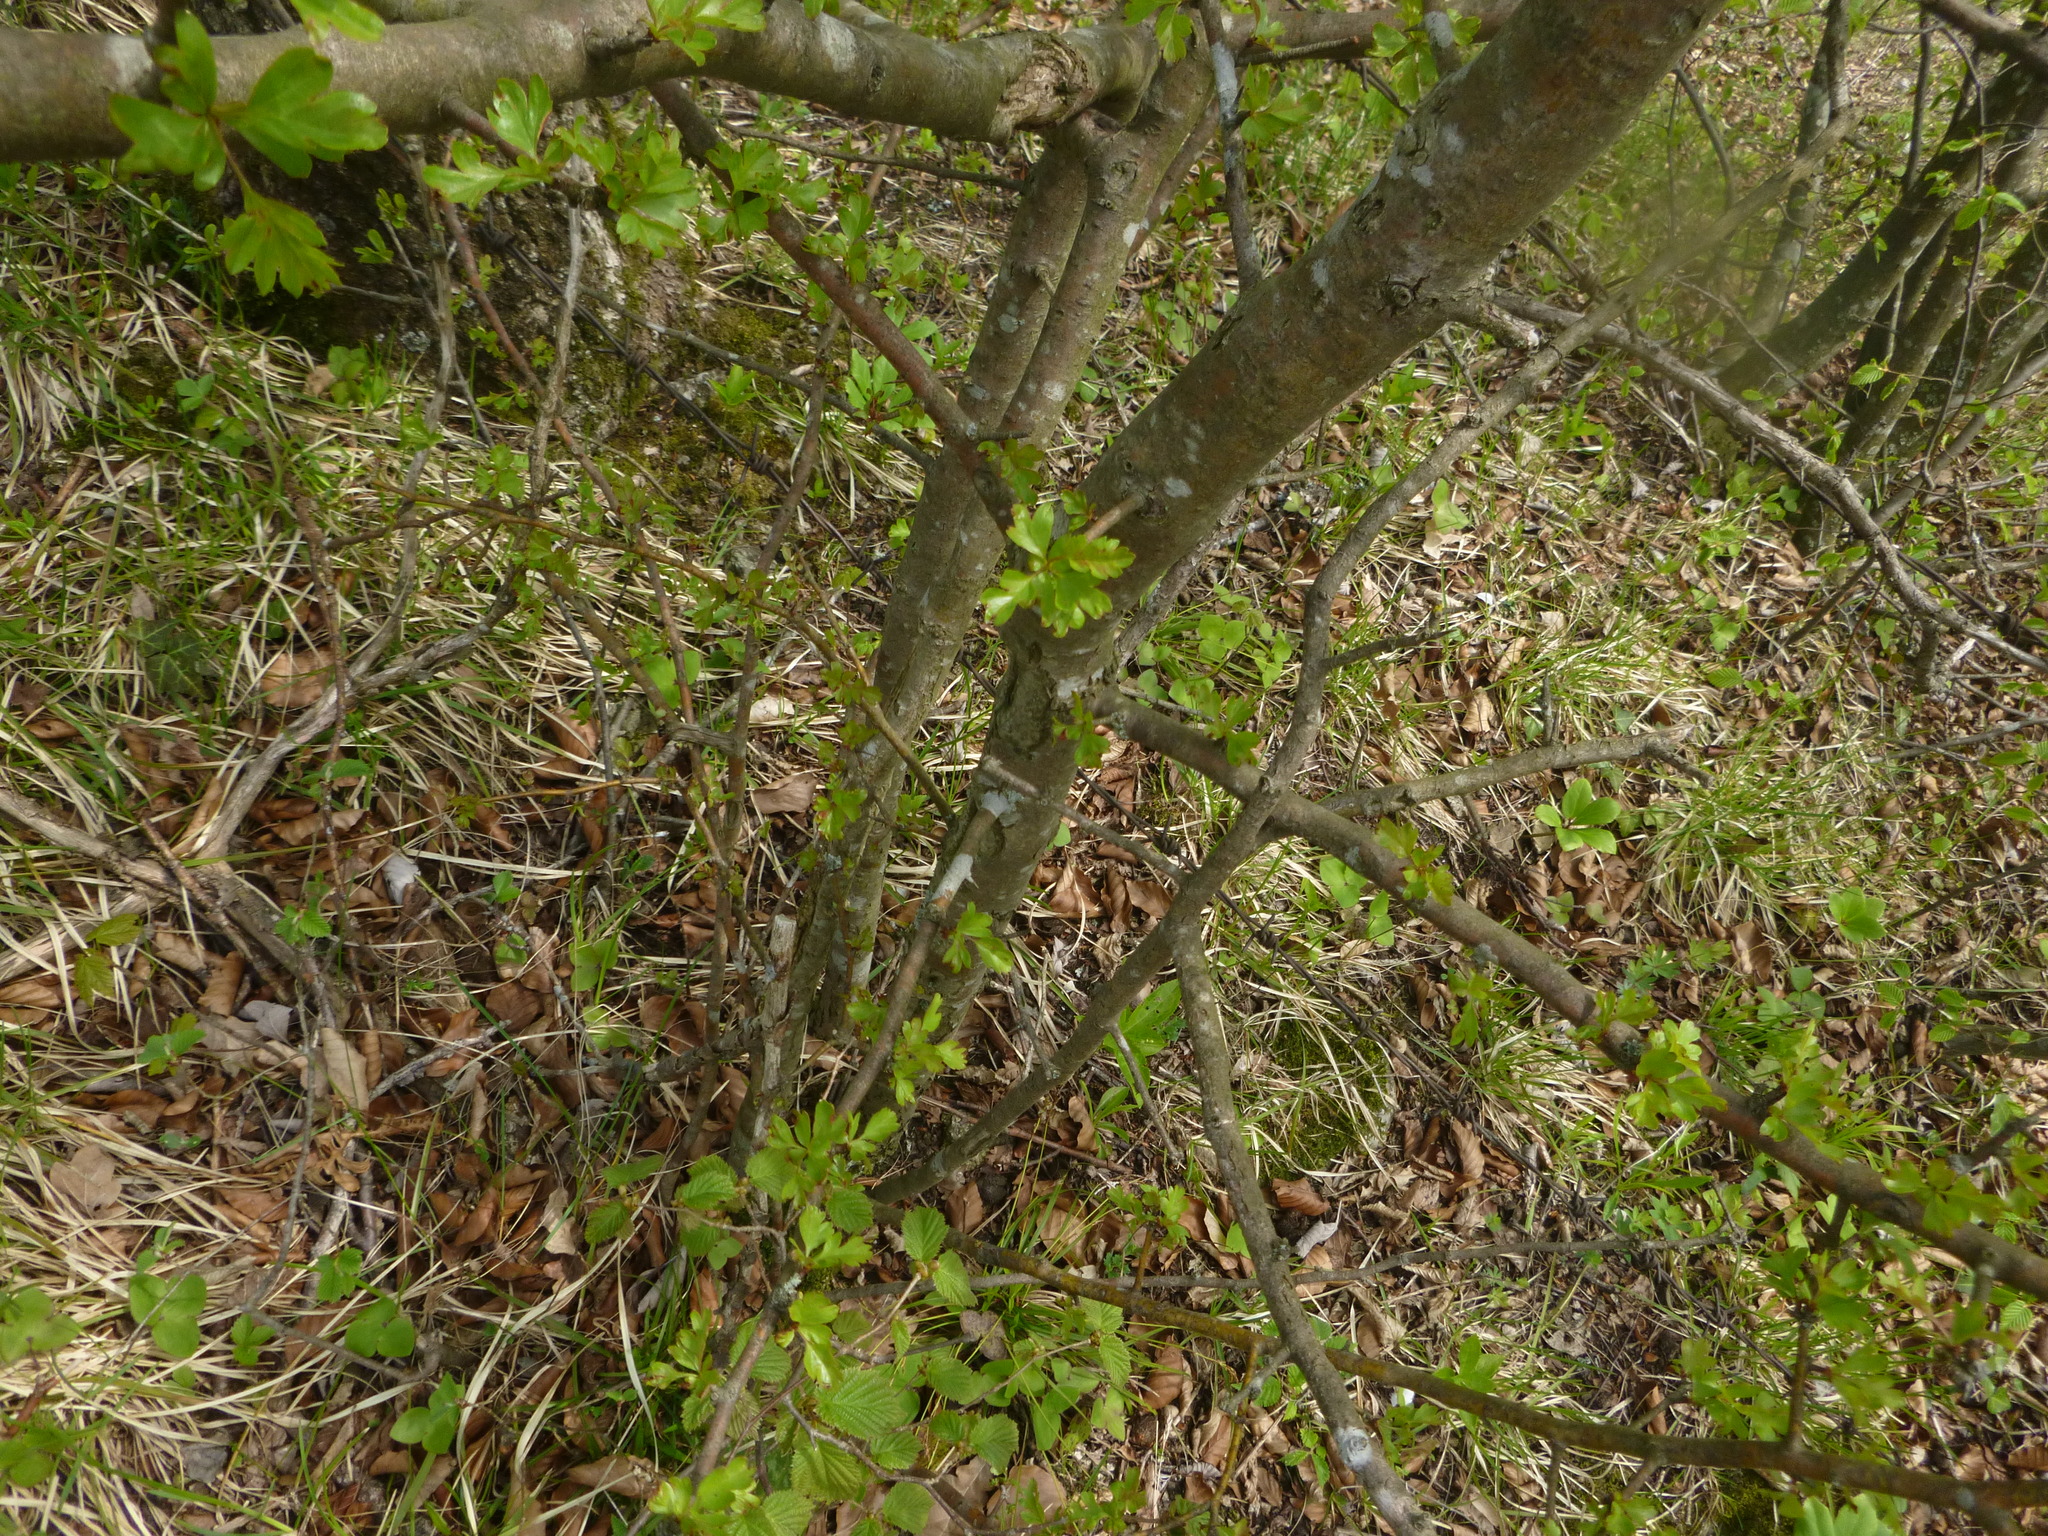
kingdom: Plantae
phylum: Tracheophyta
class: Magnoliopsida
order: Rosales
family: Rosaceae
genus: Crataegus
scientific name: Crataegus monogyna
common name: Hawthorn
